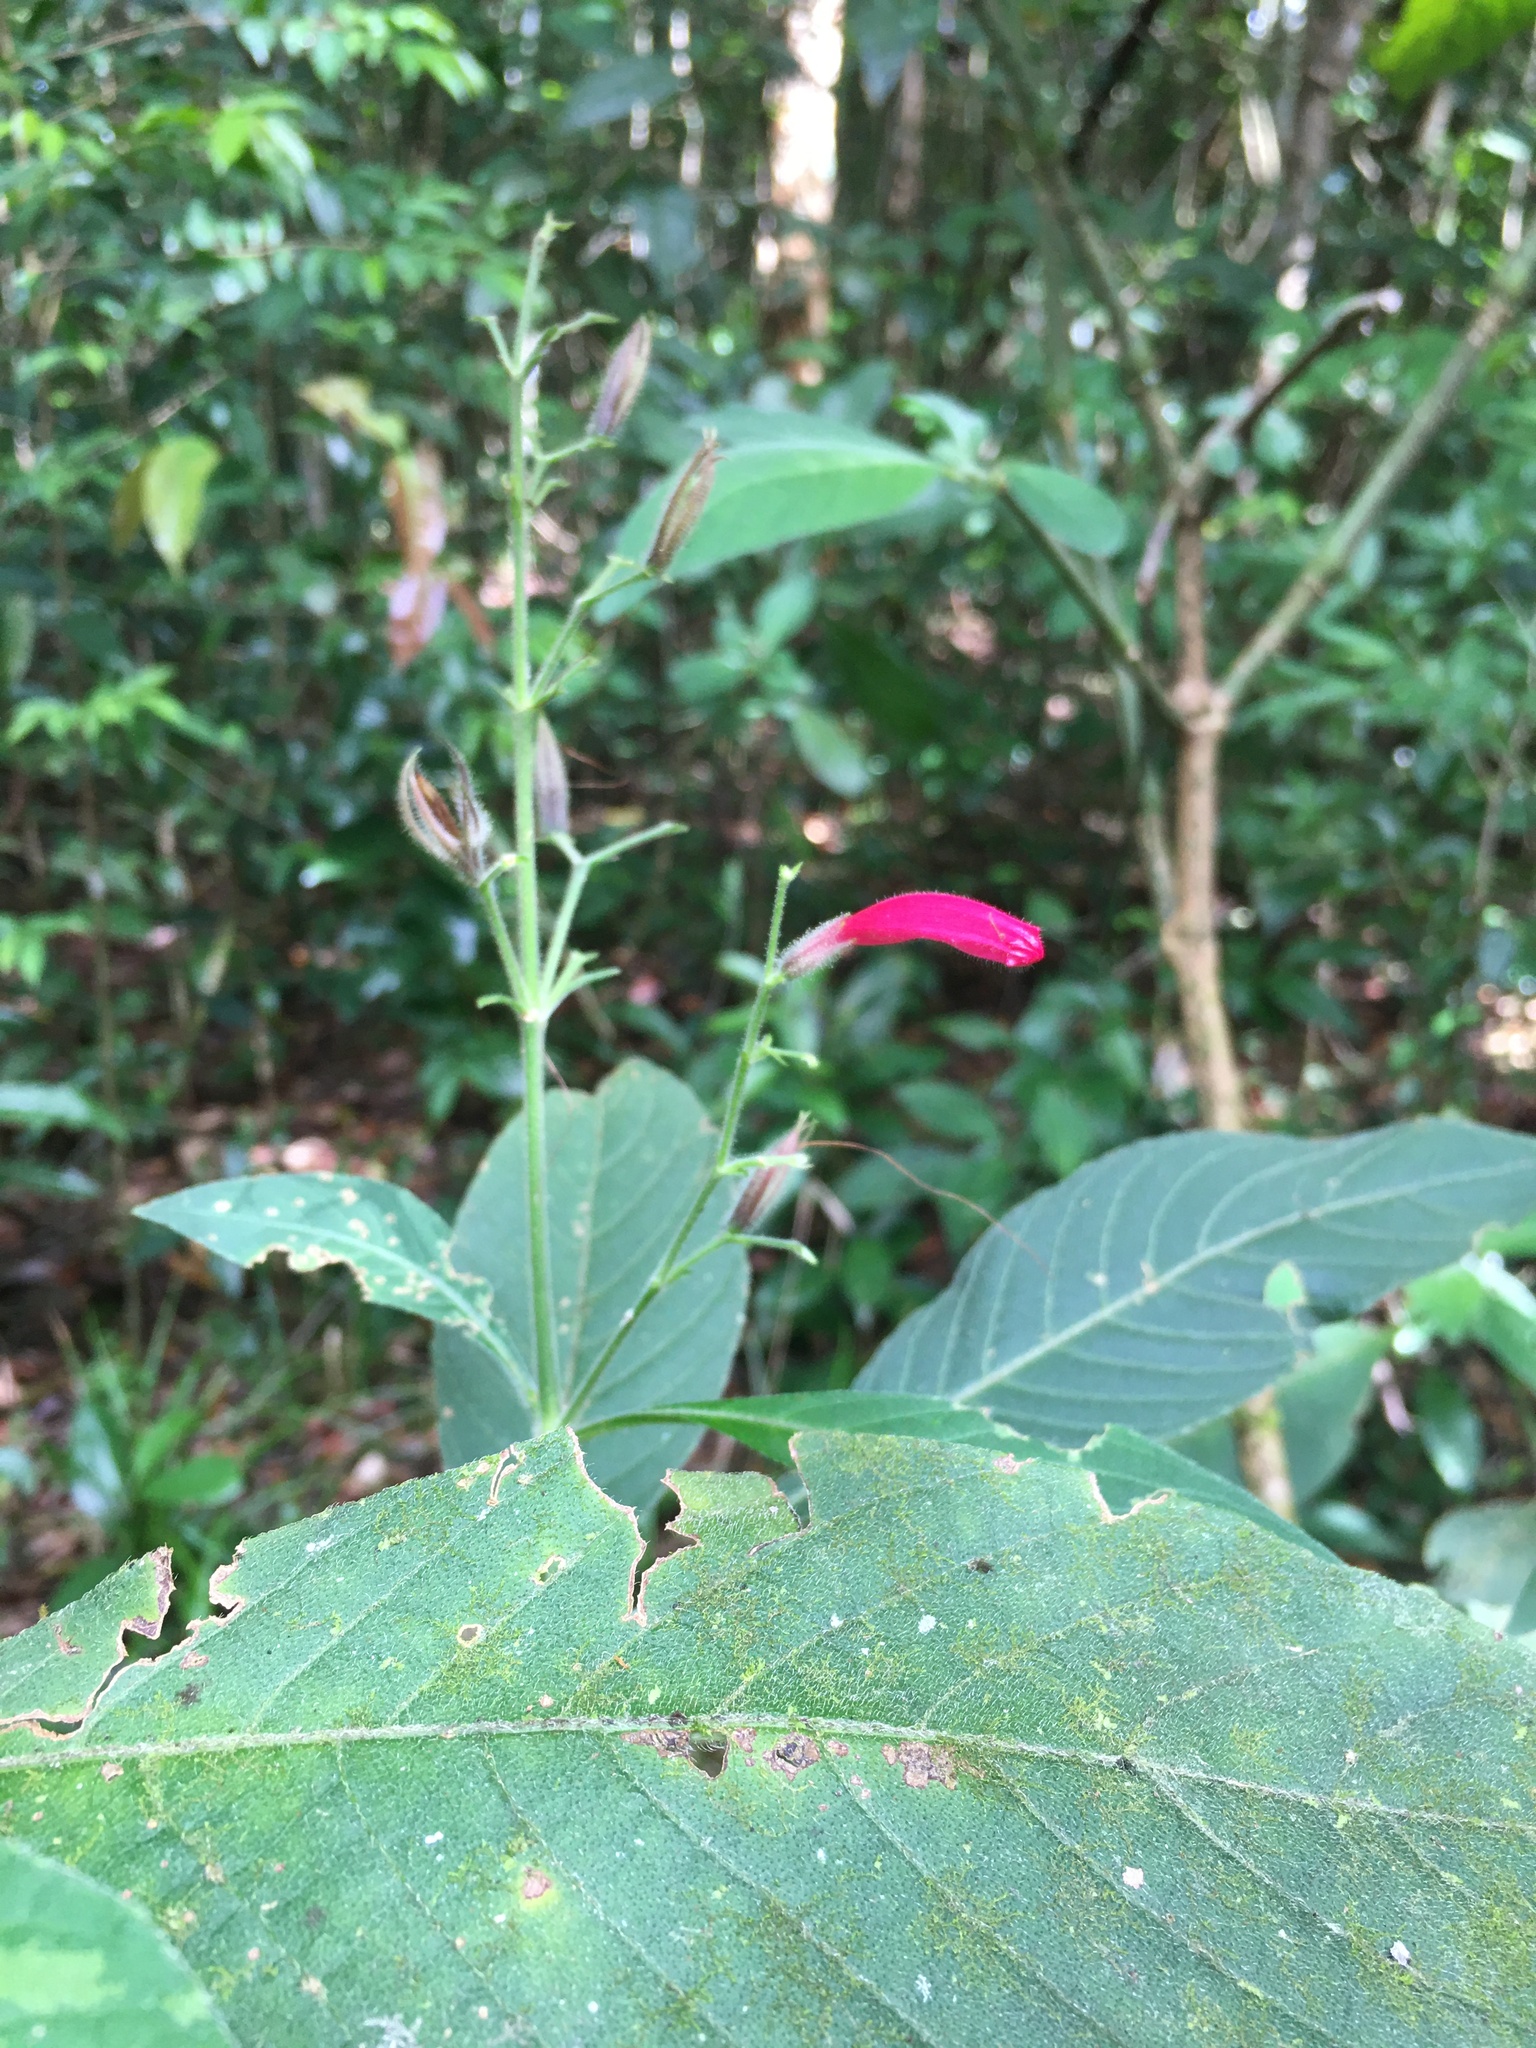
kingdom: Plantae
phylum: Tracheophyta
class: Magnoliopsida
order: Lamiales
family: Acanthaceae
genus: Ruellia
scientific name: Ruellia cearensis
